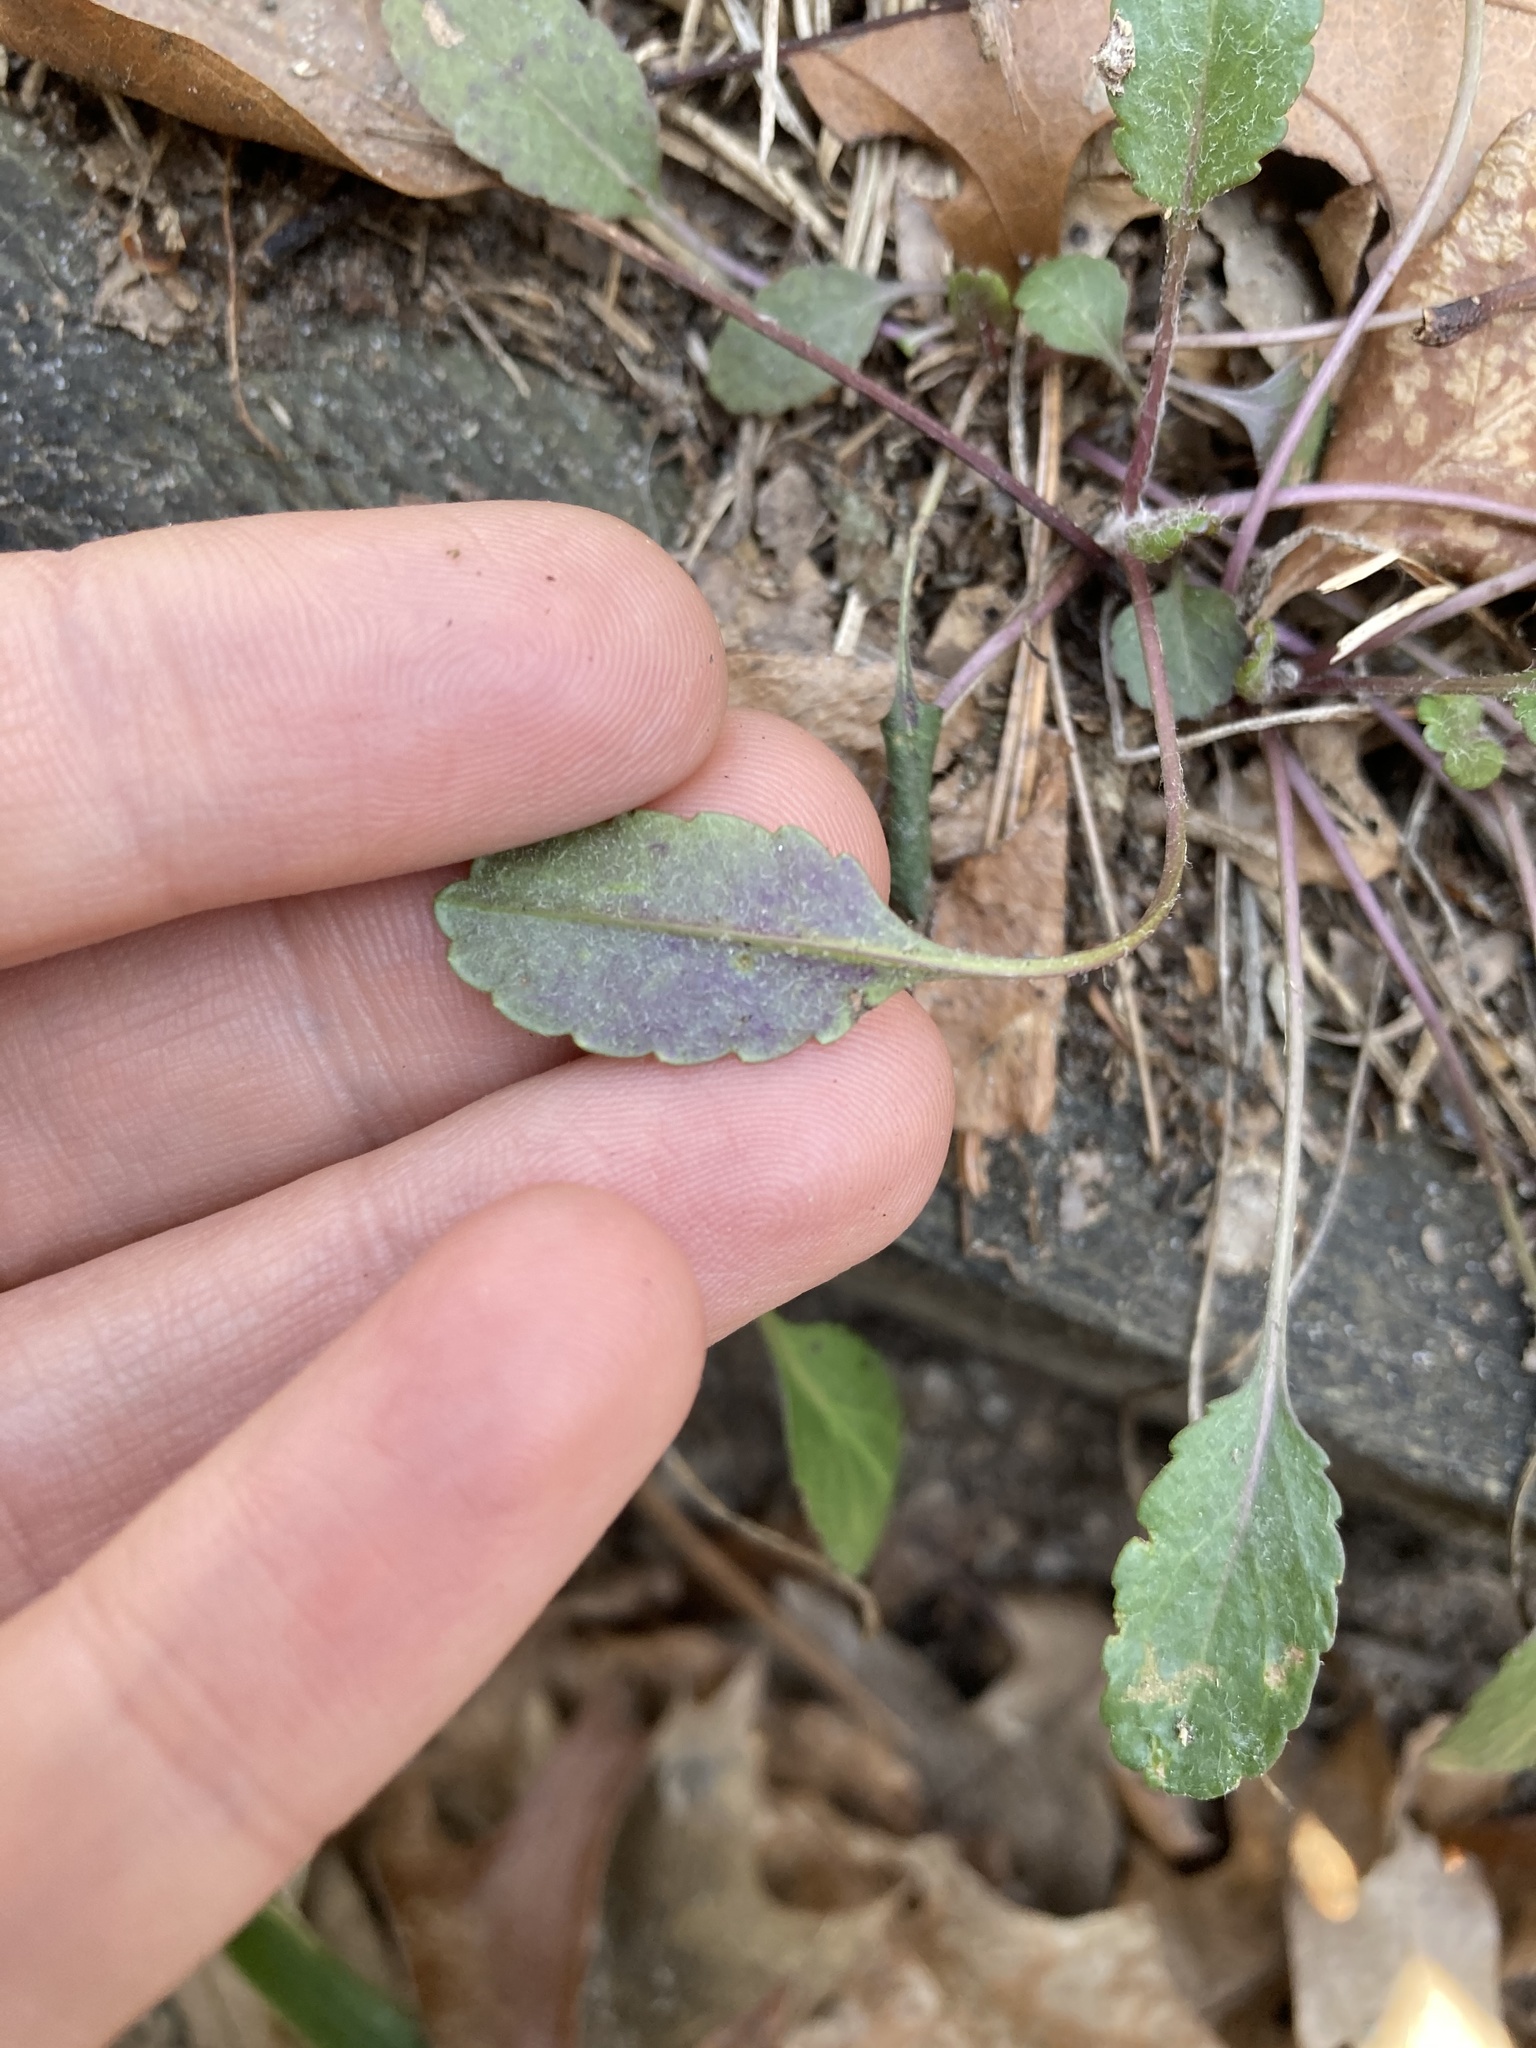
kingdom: Plantae
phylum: Tracheophyta
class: Magnoliopsida
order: Asterales
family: Asteraceae
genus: Packera
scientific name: Packera paupercula
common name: Balsam groundsel
